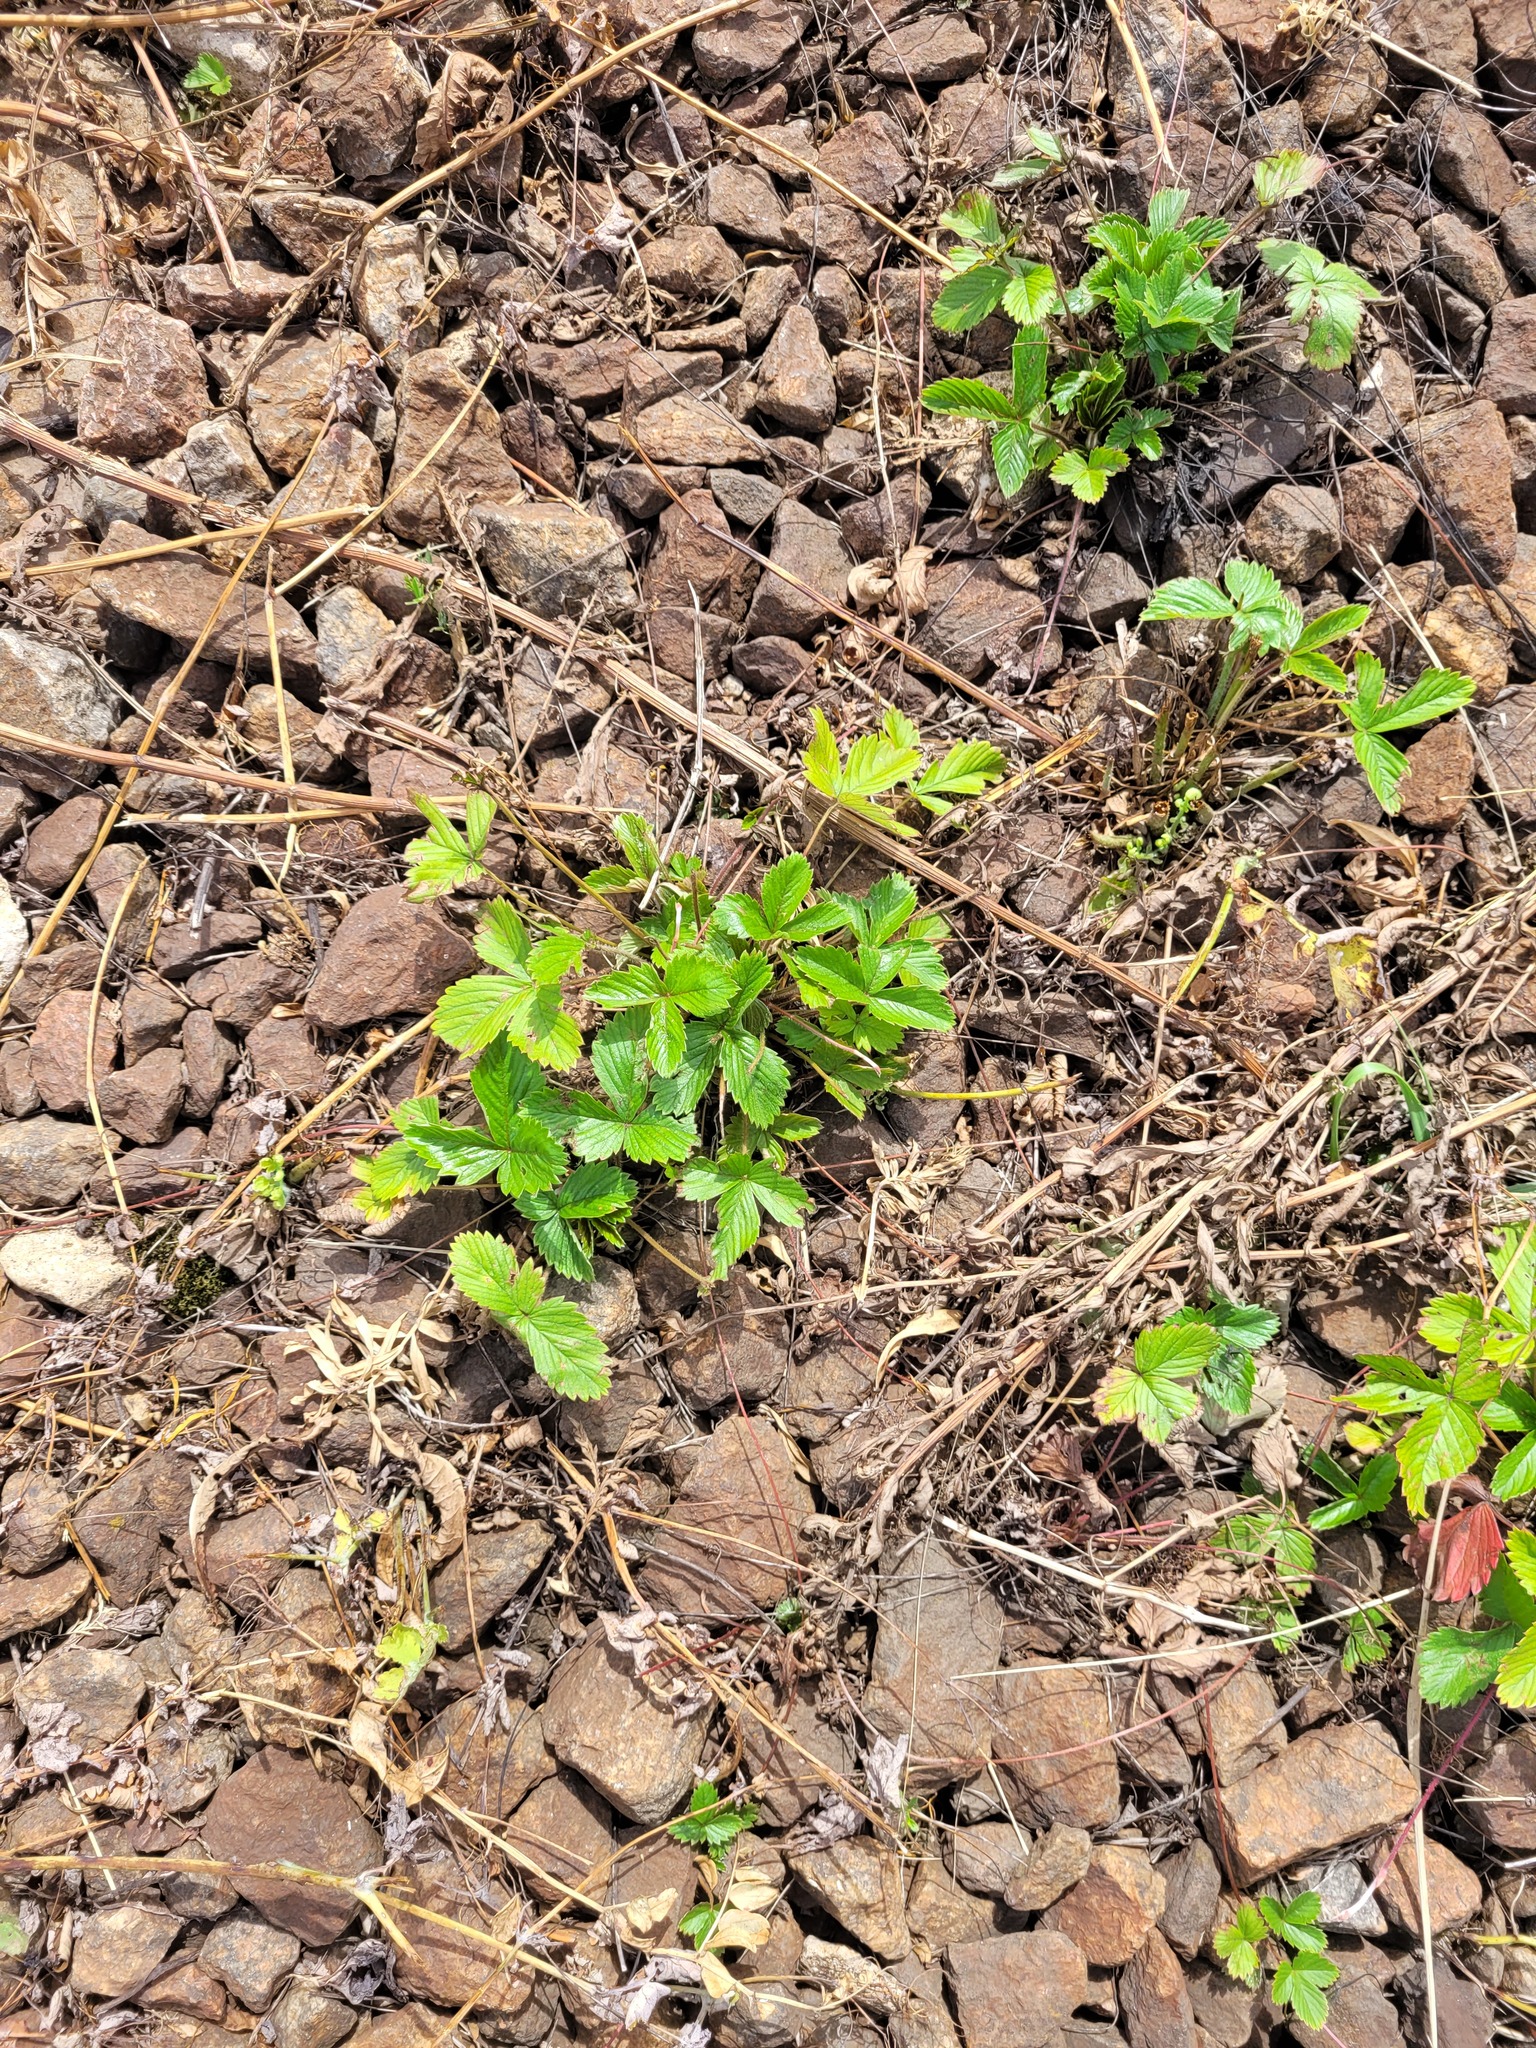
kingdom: Plantae
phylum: Tracheophyta
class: Magnoliopsida
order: Rosales
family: Rosaceae
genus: Fragaria
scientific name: Fragaria vesca
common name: Wild strawberry
